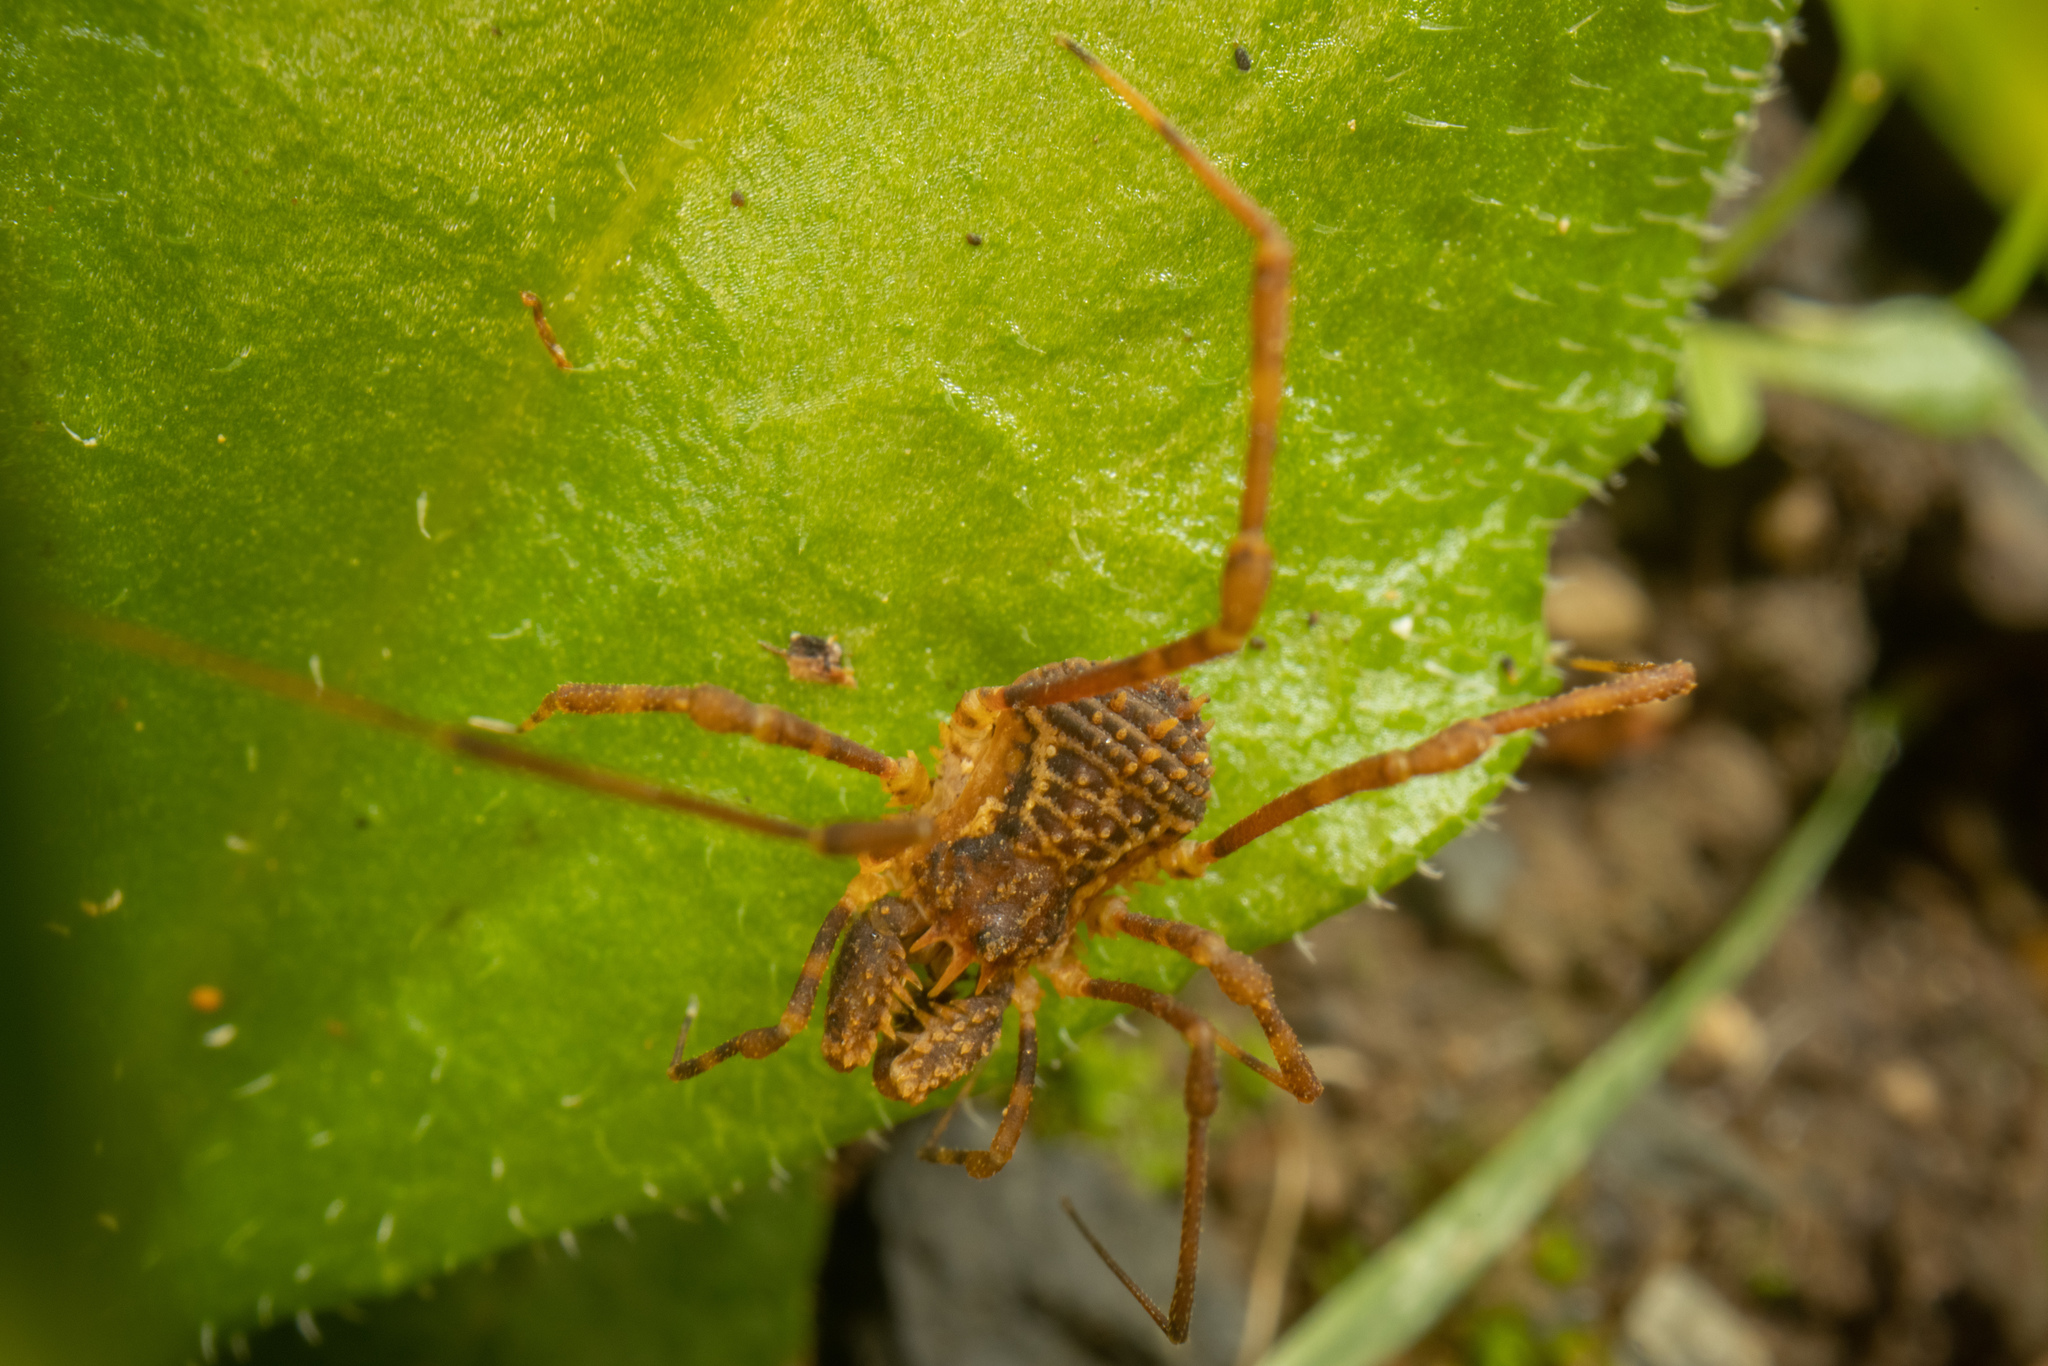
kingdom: Animalia
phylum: Arthropoda
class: Arachnida
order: Opiliones
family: Triaenonychidae
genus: Algidia
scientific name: Algidia chiltoni
